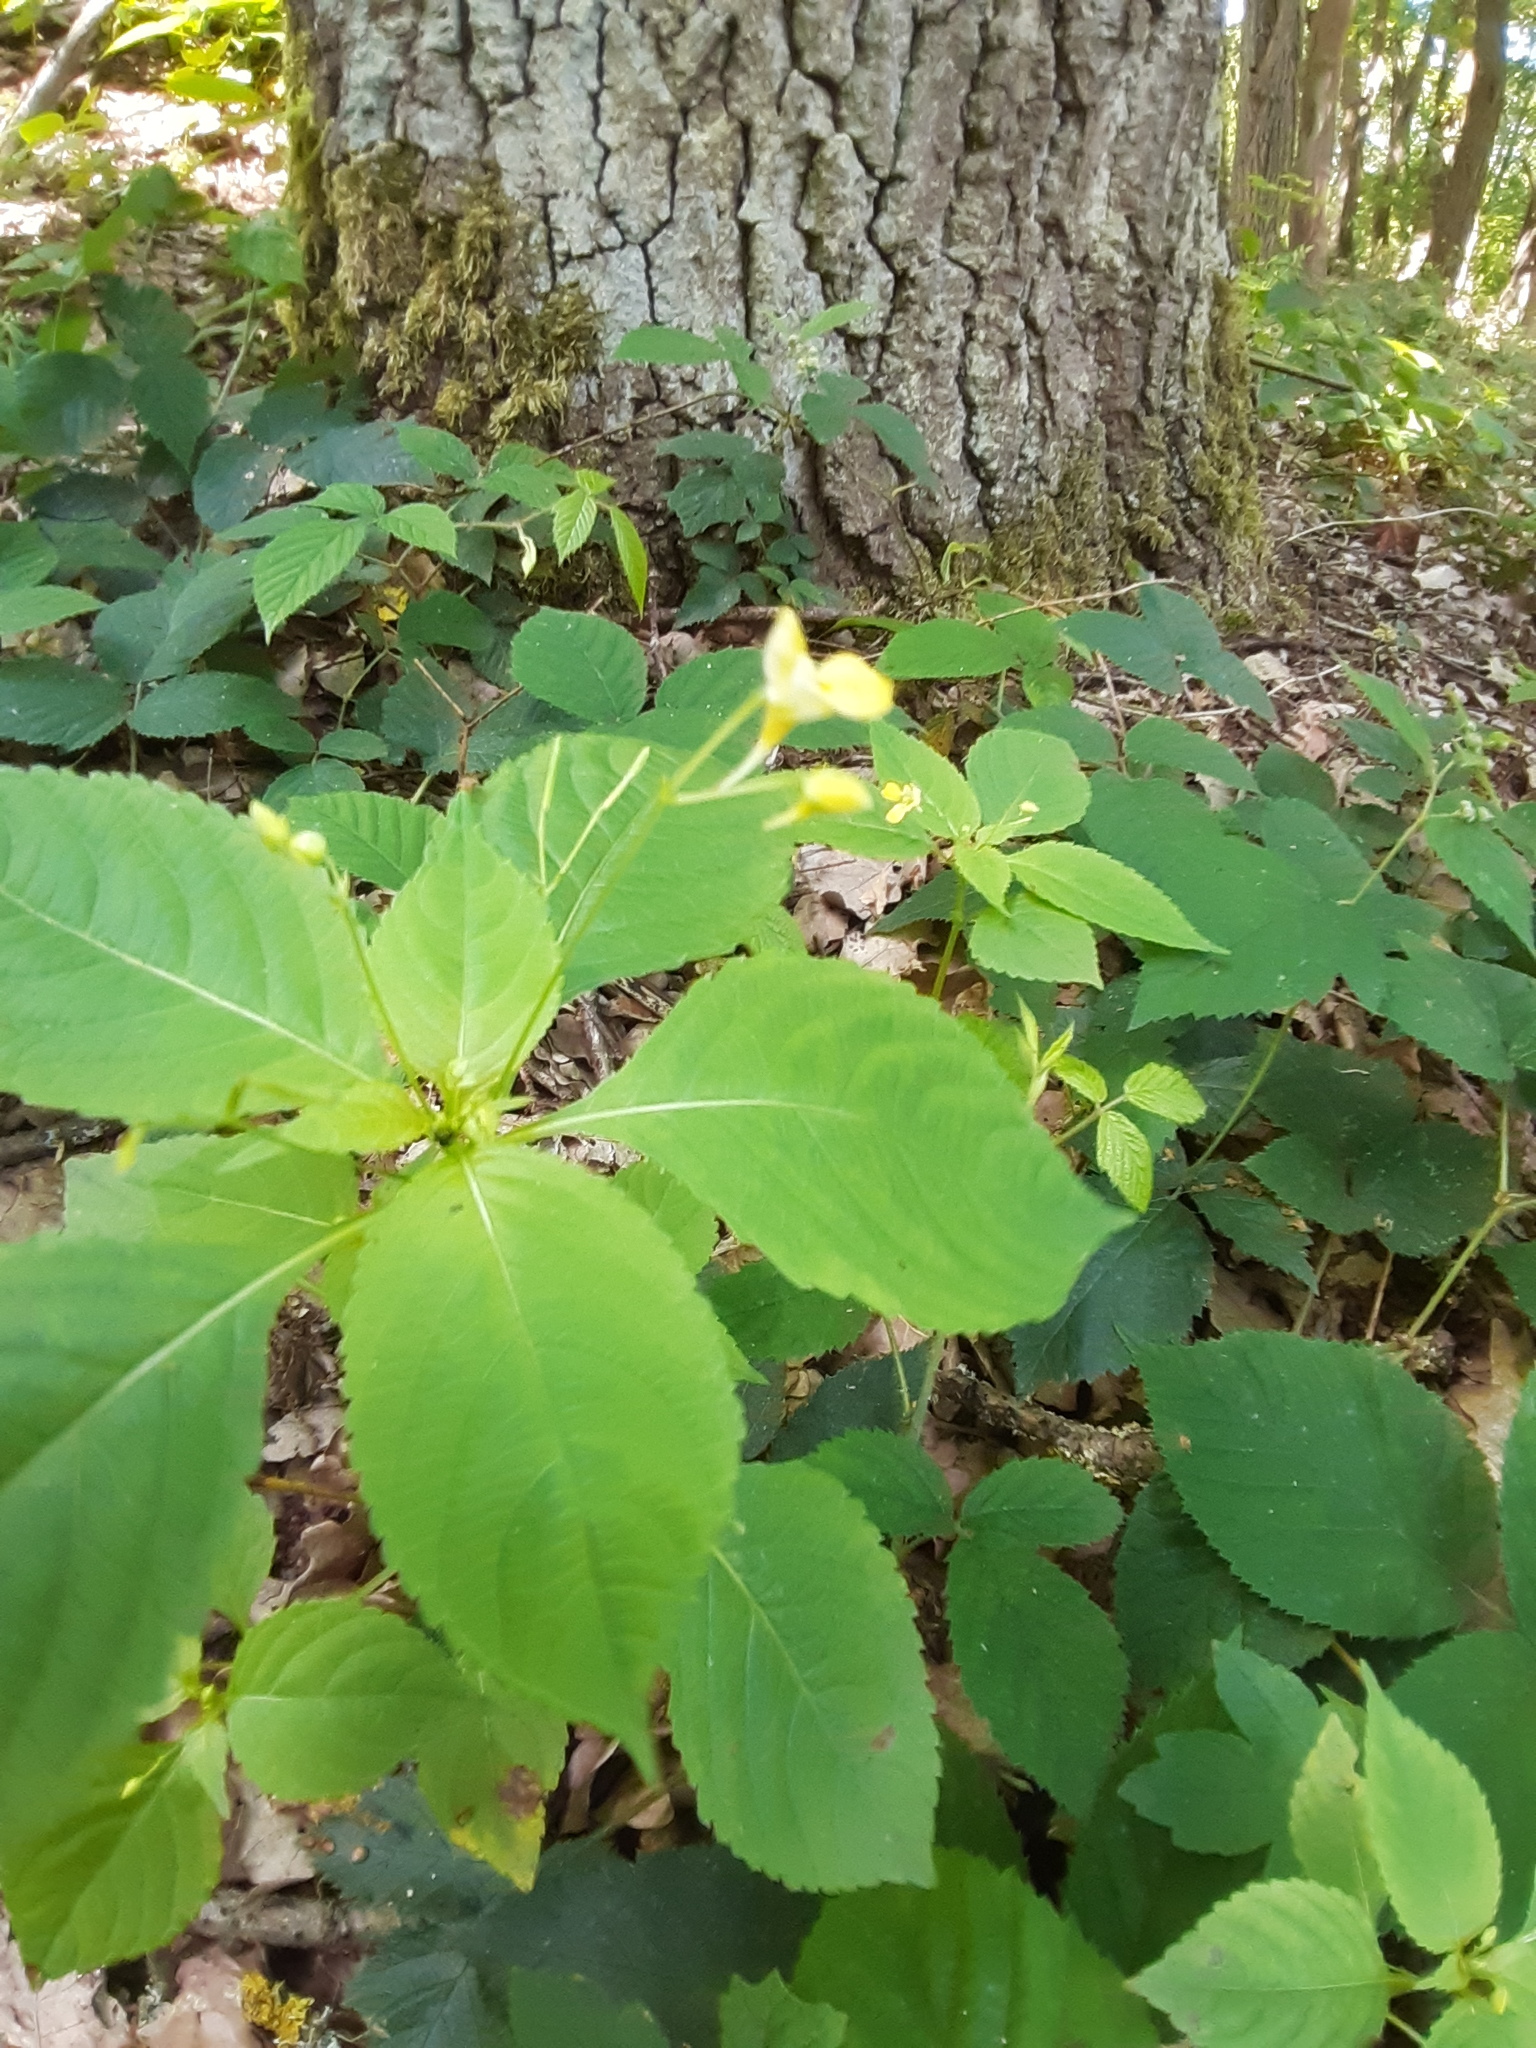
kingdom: Plantae
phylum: Tracheophyta
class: Magnoliopsida
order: Ericales
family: Balsaminaceae
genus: Impatiens
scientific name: Impatiens parviflora
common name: Small balsam
